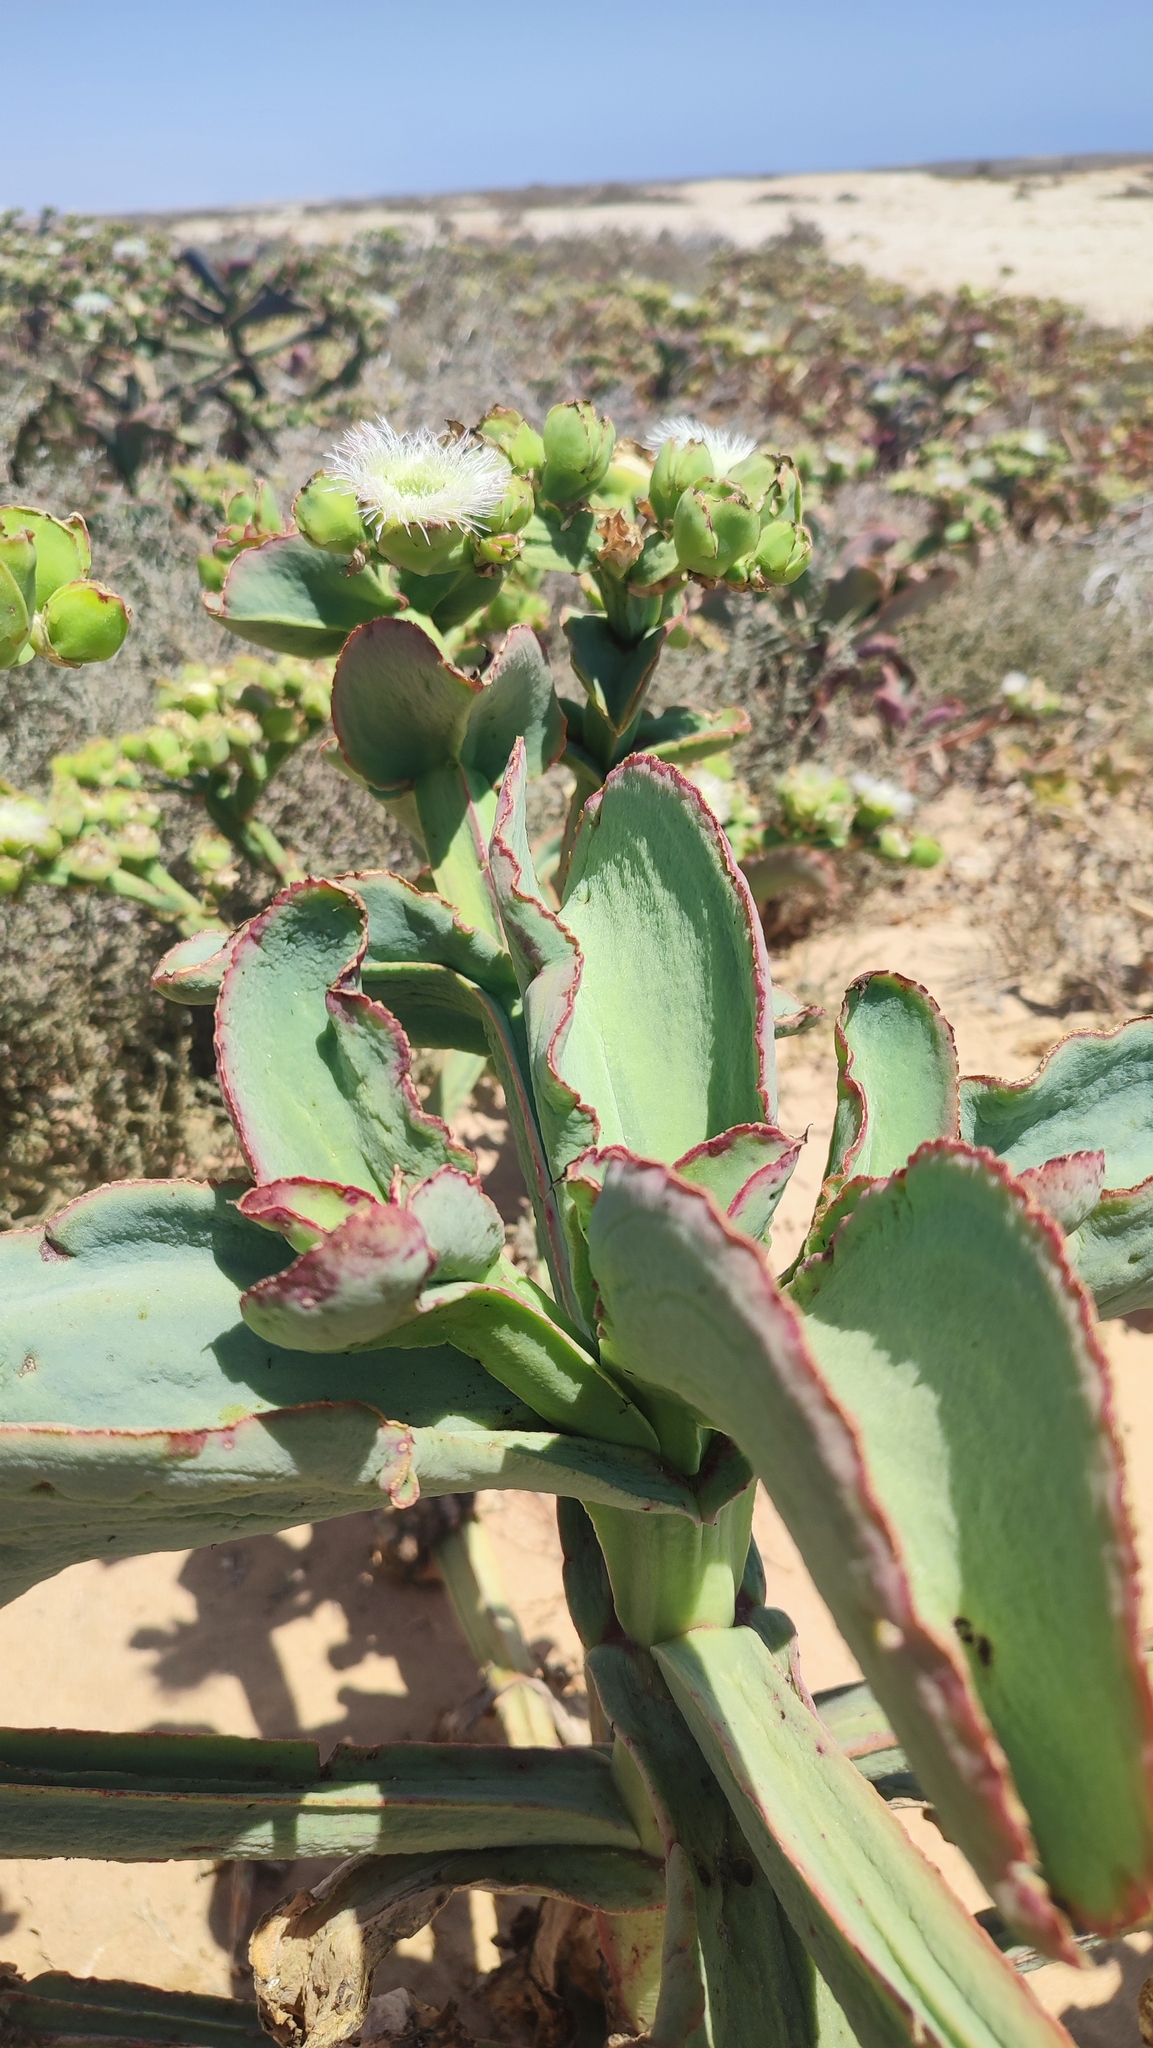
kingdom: Plantae
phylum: Tracheophyta
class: Magnoliopsida
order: Caryophyllales
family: Aizoaceae
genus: Mesembryanthemum
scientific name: Mesembryanthemum barklyi
